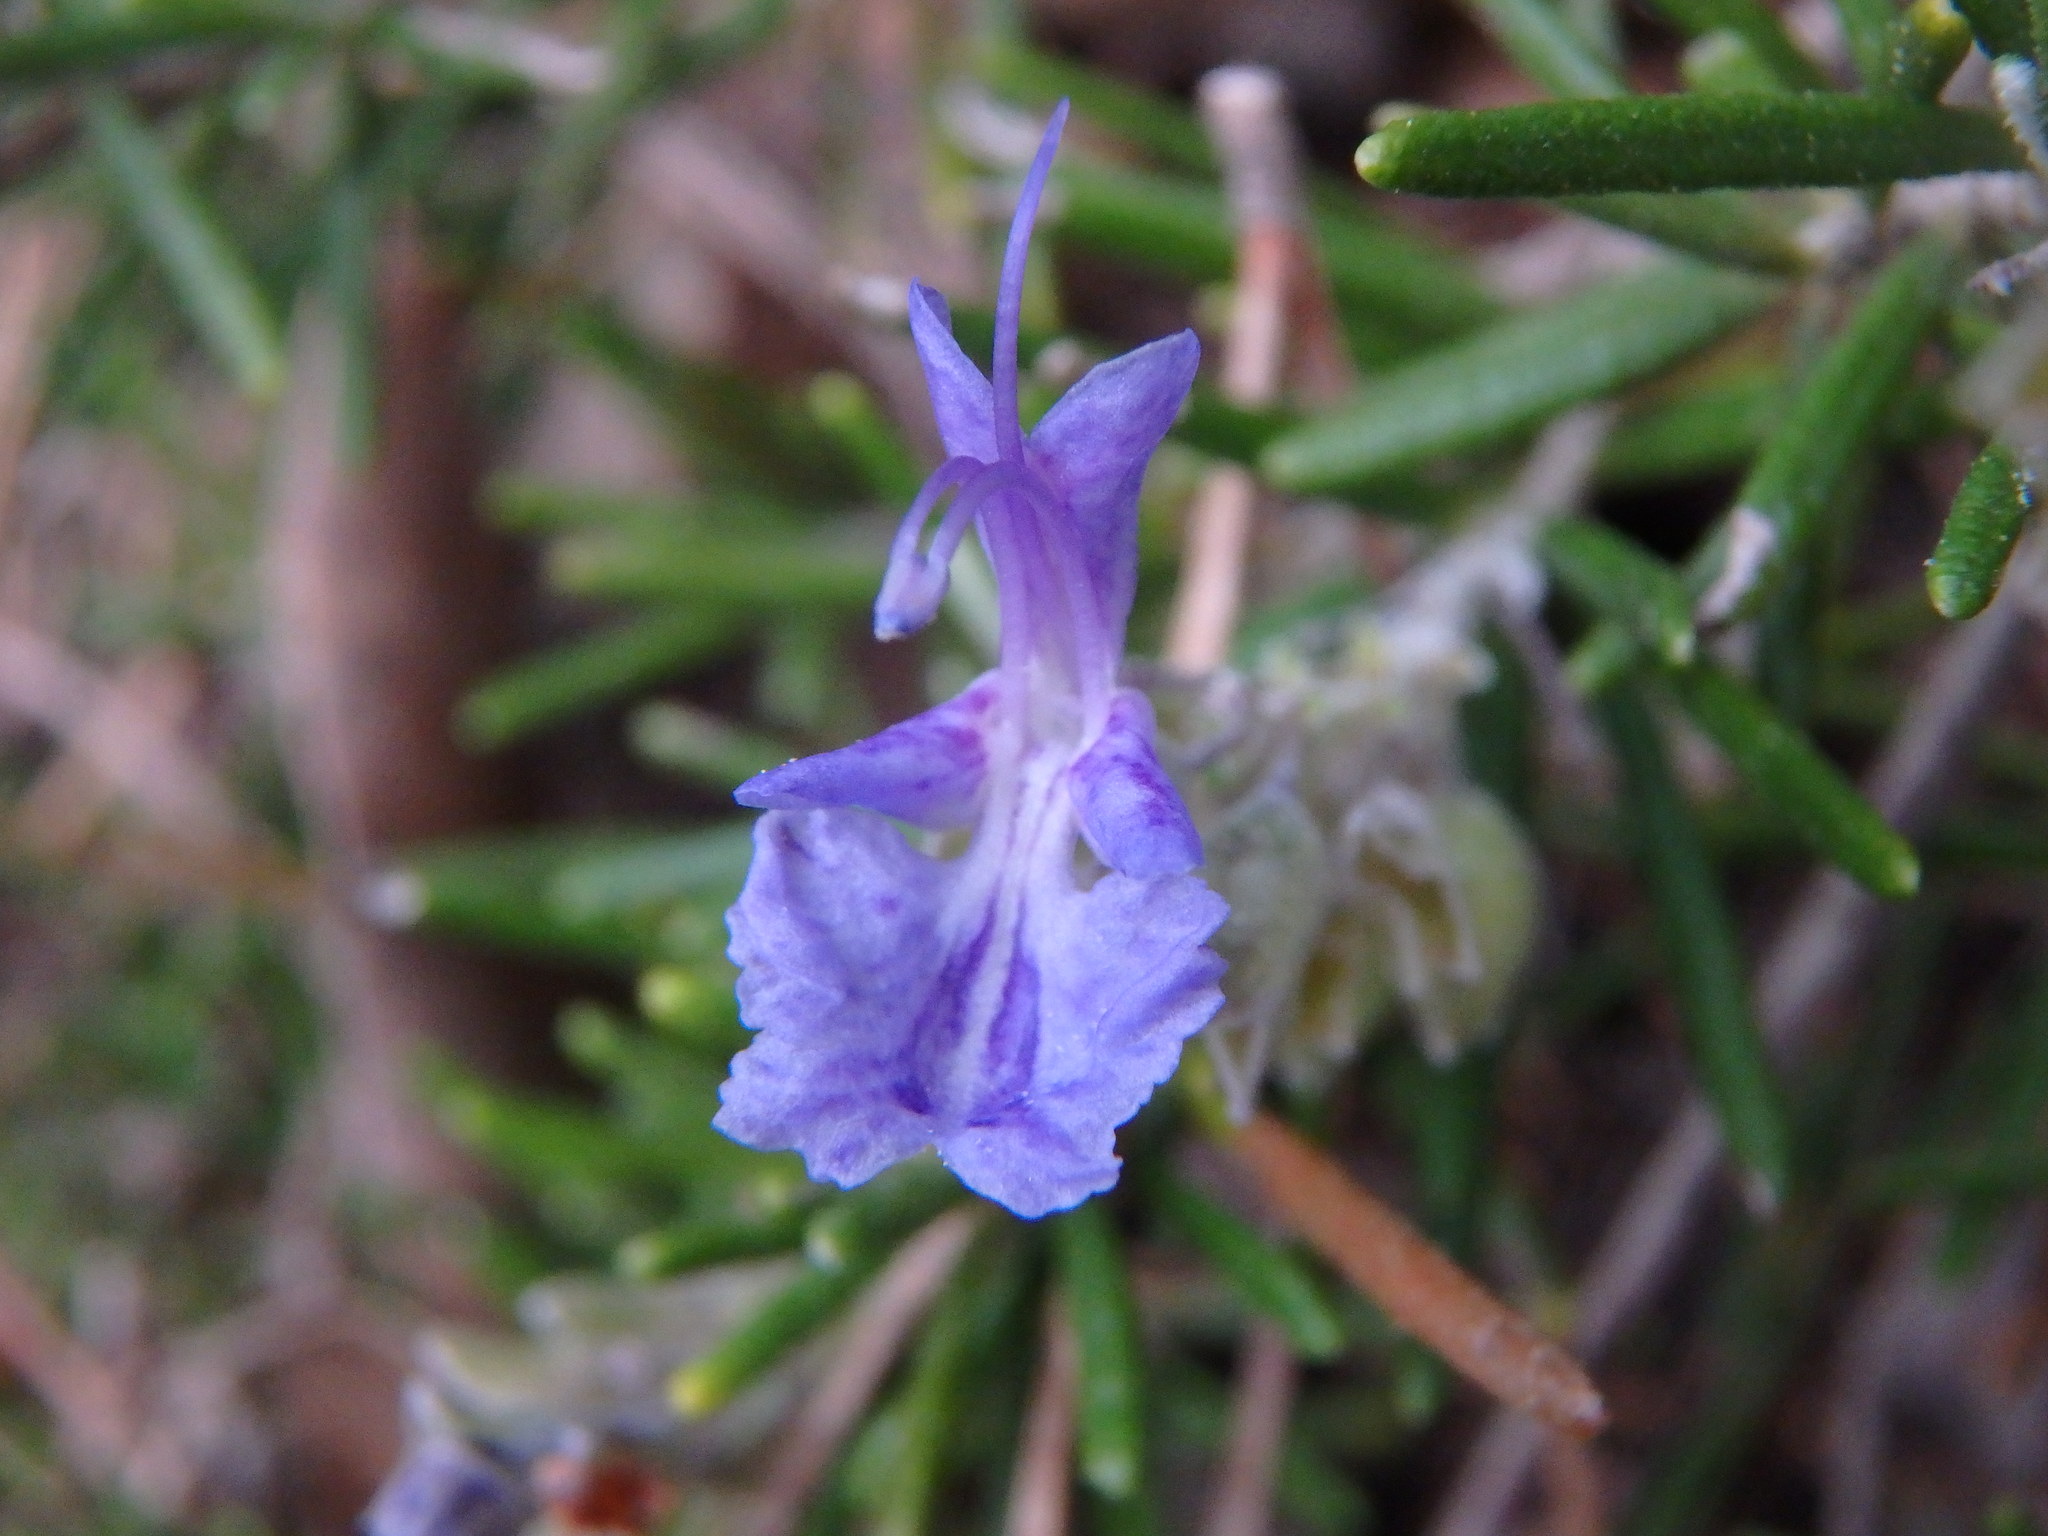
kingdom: Plantae
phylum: Tracheophyta
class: Magnoliopsida
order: Lamiales
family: Lamiaceae
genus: Salvia
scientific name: Salvia rosmarinus
